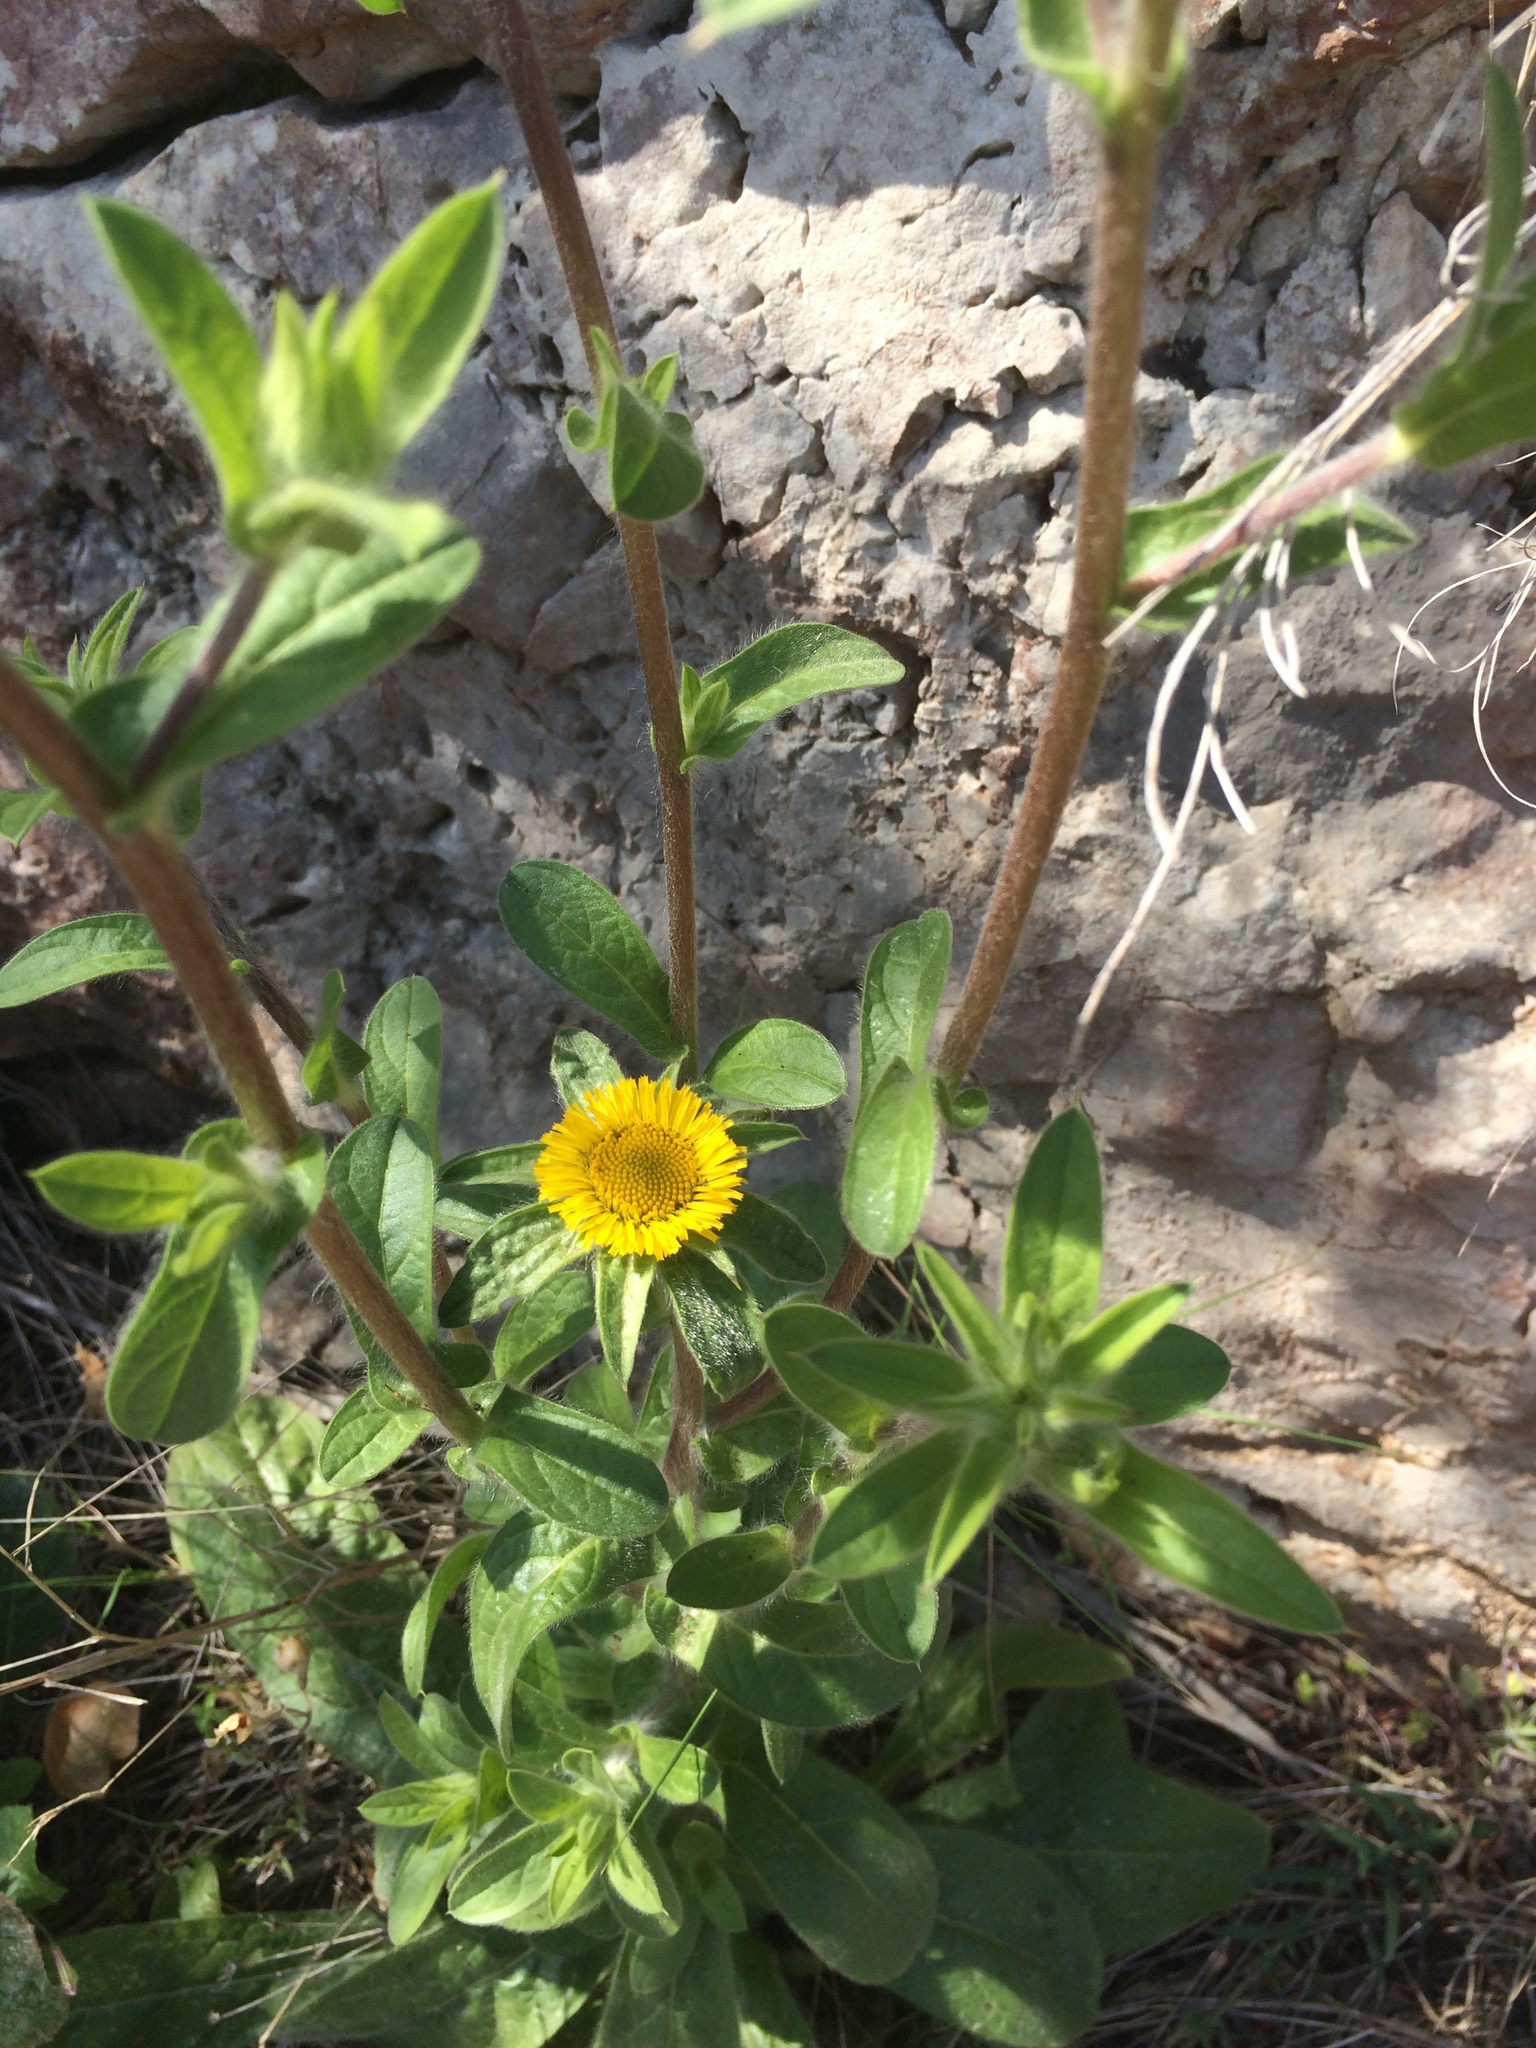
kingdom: Plantae
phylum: Tracheophyta
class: Magnoliopsida
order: Asterales
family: Asteraceae
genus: Pallenis
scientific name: Pallenis spinosa
